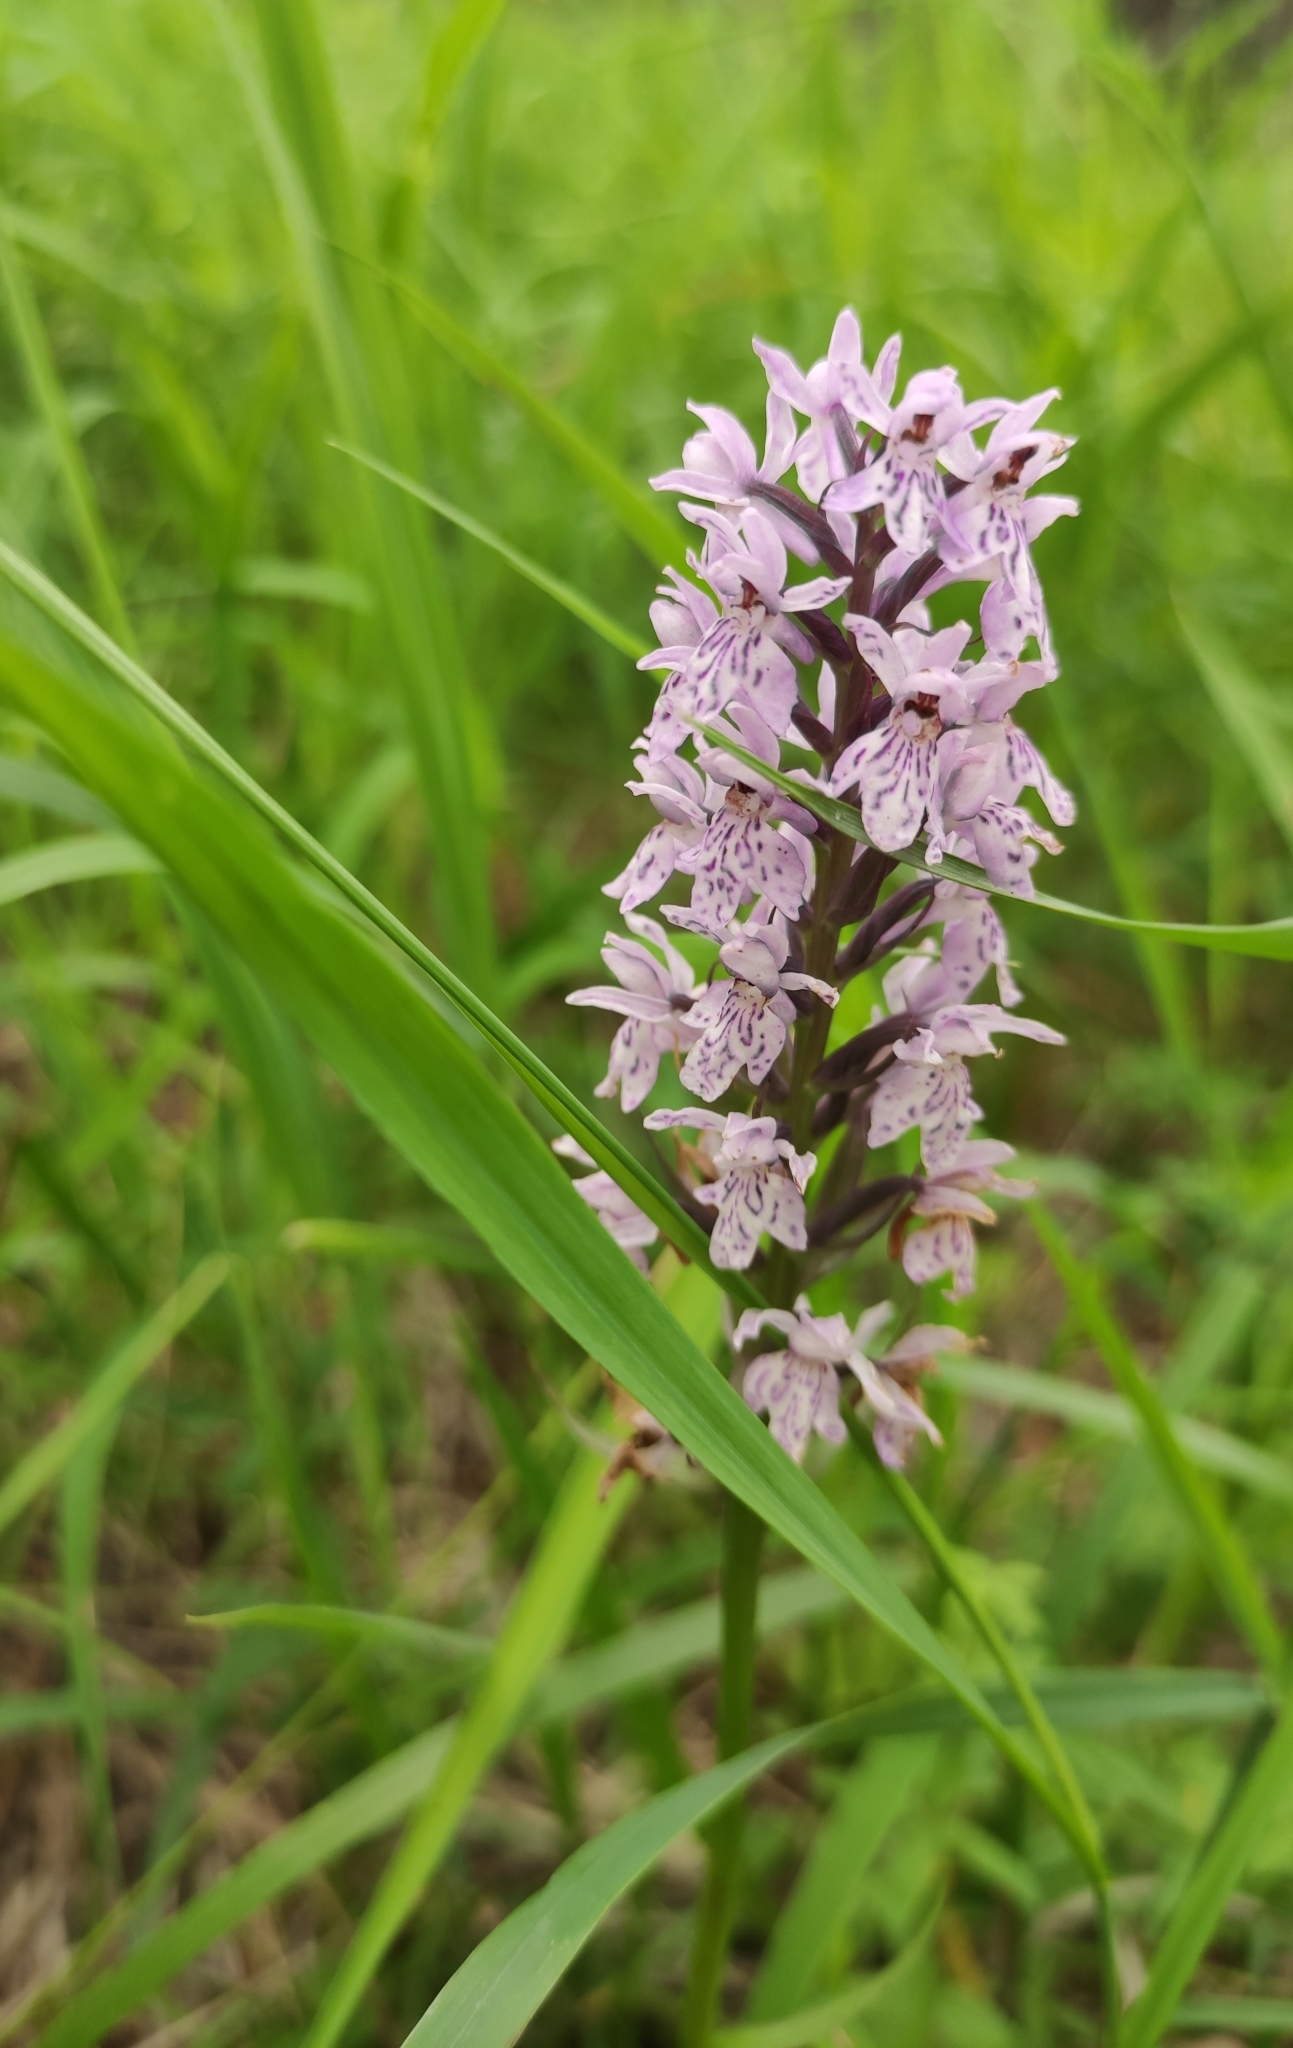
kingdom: Plantae
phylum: Tracheophyta
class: Liliopsida
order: Asparagales
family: Orchidaceae
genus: Dactylorhiza
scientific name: Dactylorhiza maculata
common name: Heath spotted-orchid
